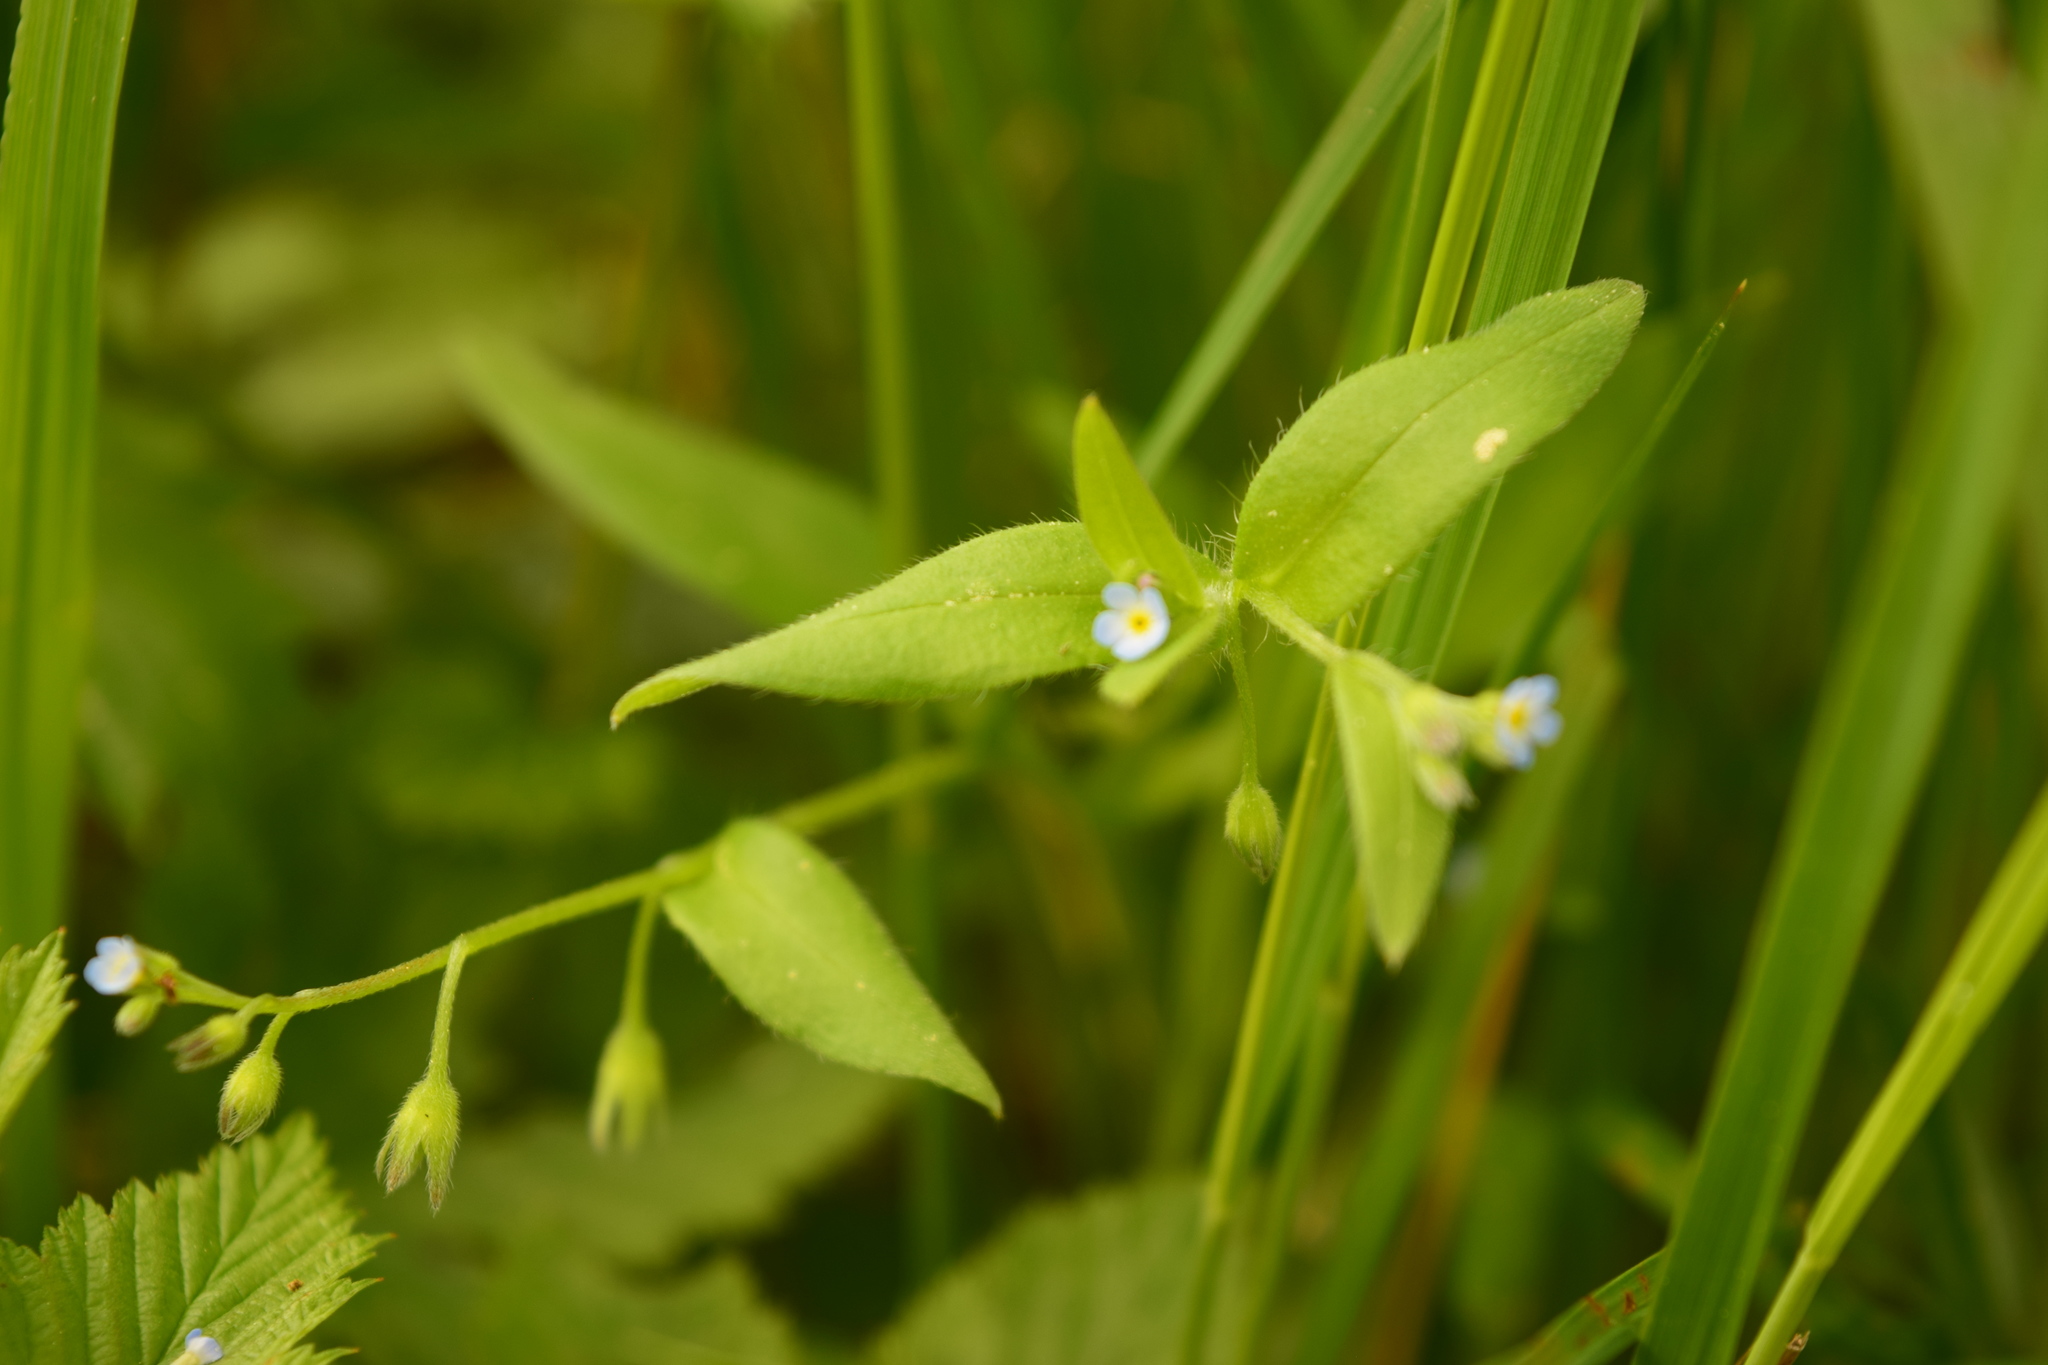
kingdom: Plantae
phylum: Tracheophyta
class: Magnoliopsida
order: Boraginales
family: Boraginaceae
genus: Myosotis
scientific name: Myosotis sparsiflora
